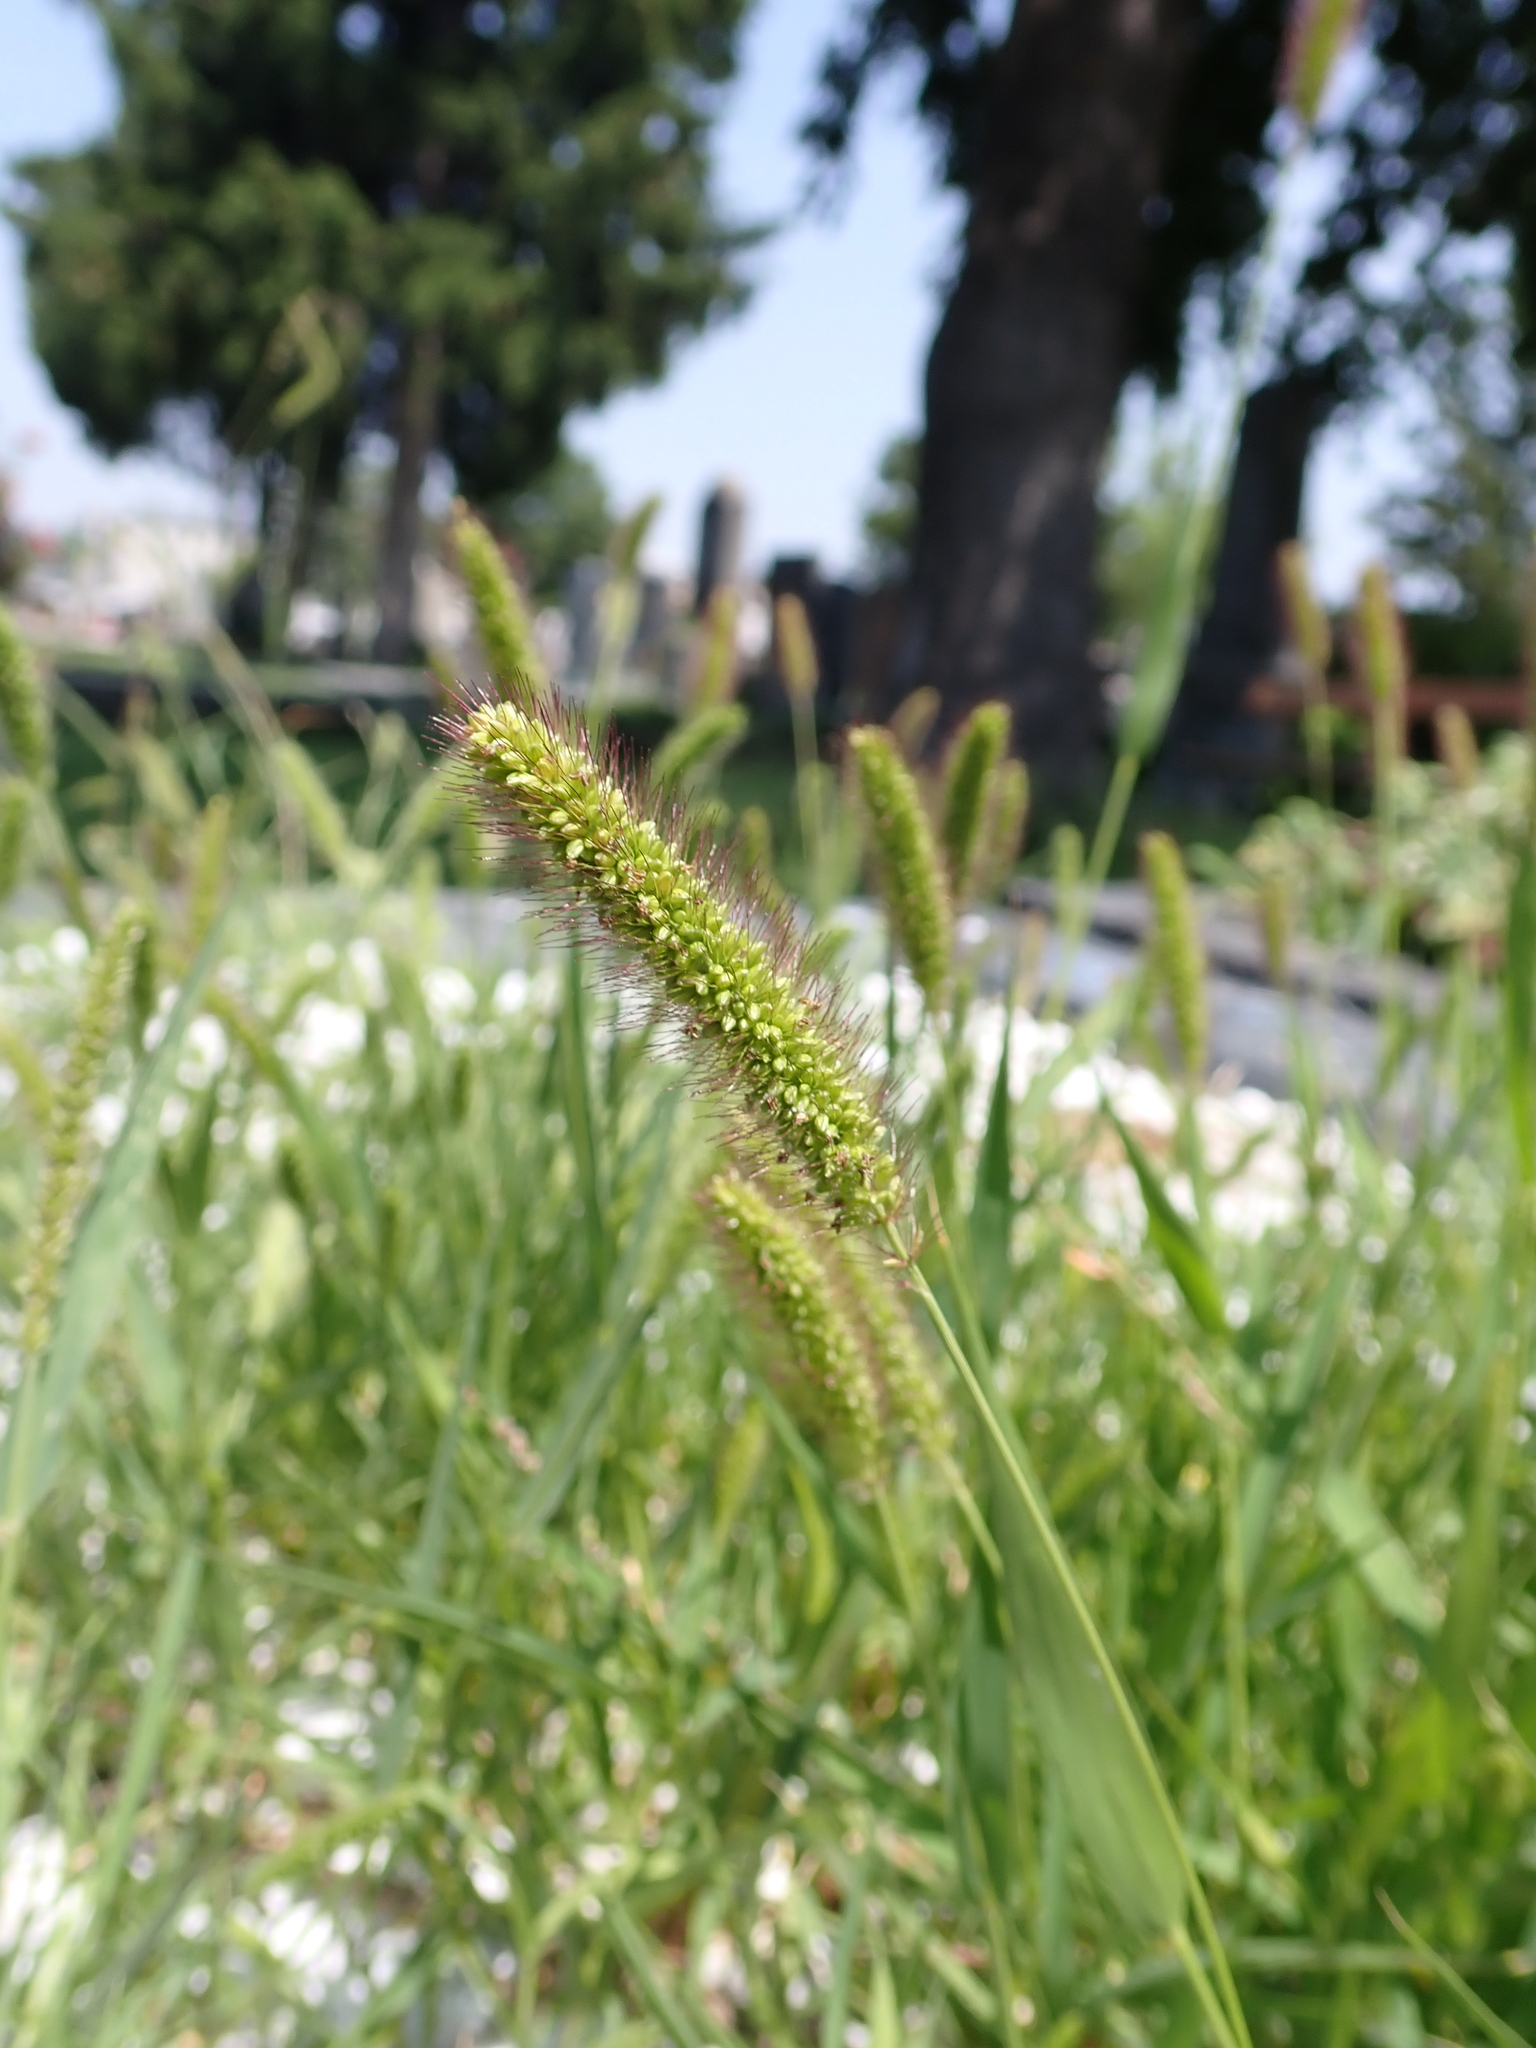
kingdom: Plantae
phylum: Tracheophyta
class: Liliopsida
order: Poales
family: Poaceae
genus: Setaria
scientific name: Setaria viridis
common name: Green bristlegrass
